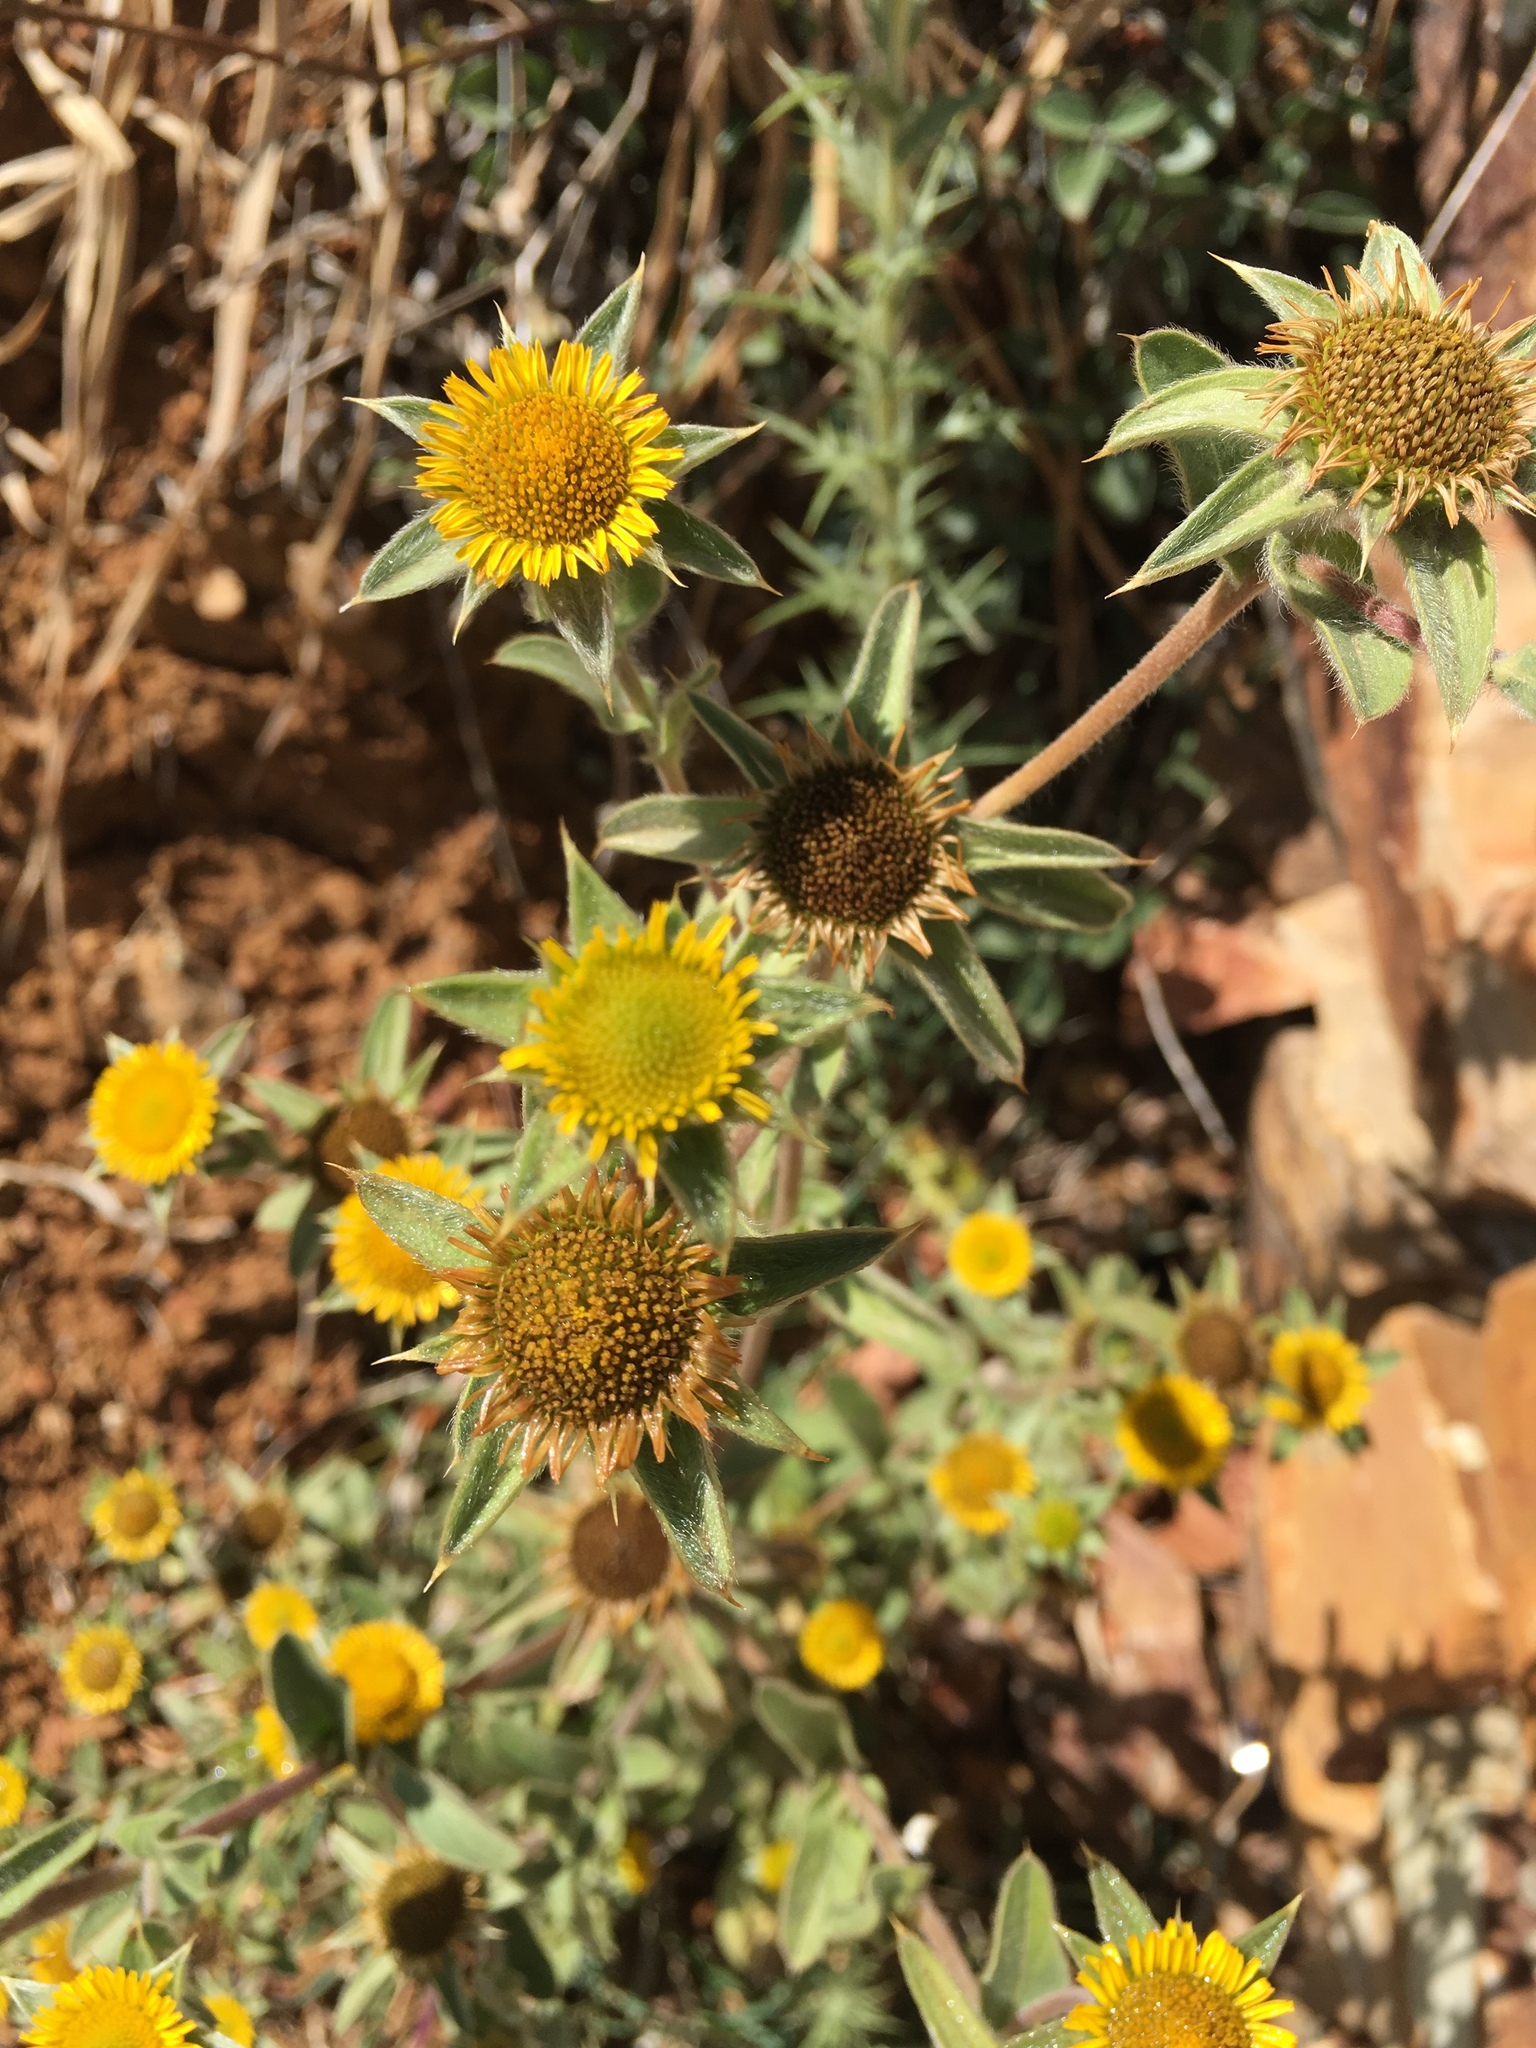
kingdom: Plantae
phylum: Tracheophyta
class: Magnoliopsida
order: Asterales
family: Asteraceae
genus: Pallenis
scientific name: Pallenis spinosa
